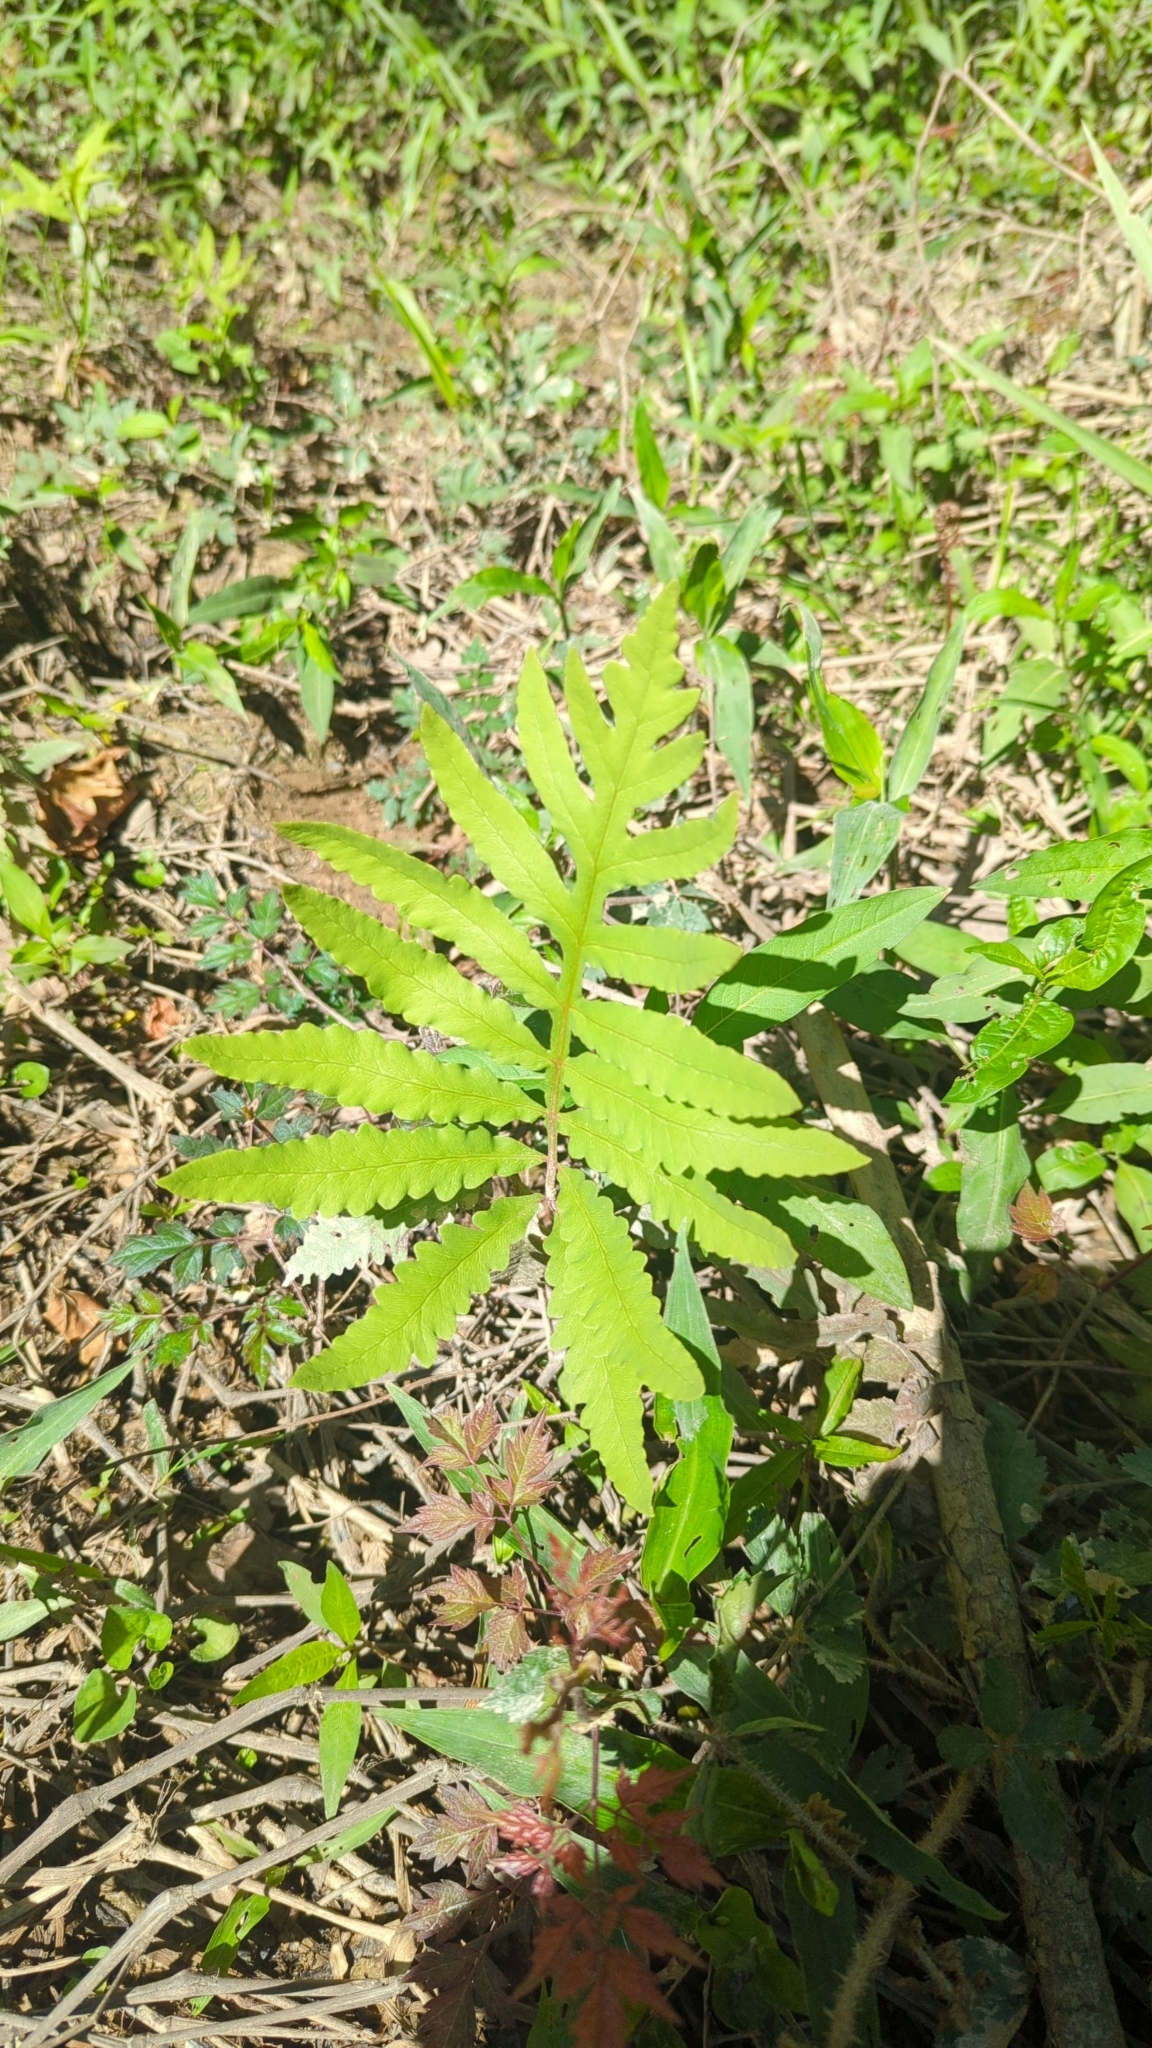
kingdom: Plantae
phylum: Tracheophyta
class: Polypodiopsida
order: Polypodiales
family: Onocleaceae
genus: Onoclea
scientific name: Onoclea sensibilis
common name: Sensitive fern
